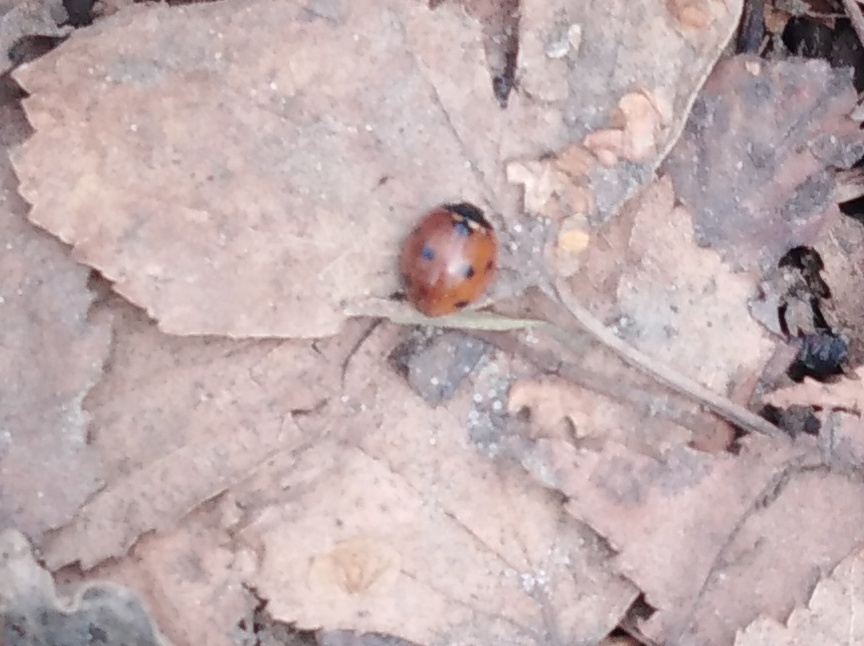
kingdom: Animalia
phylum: Arthropoda
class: Insecta
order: Coleoptera
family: Coccinellidae
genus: Coccinella
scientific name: Coccinella septempunctata
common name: Sevenspotted lady beetle
